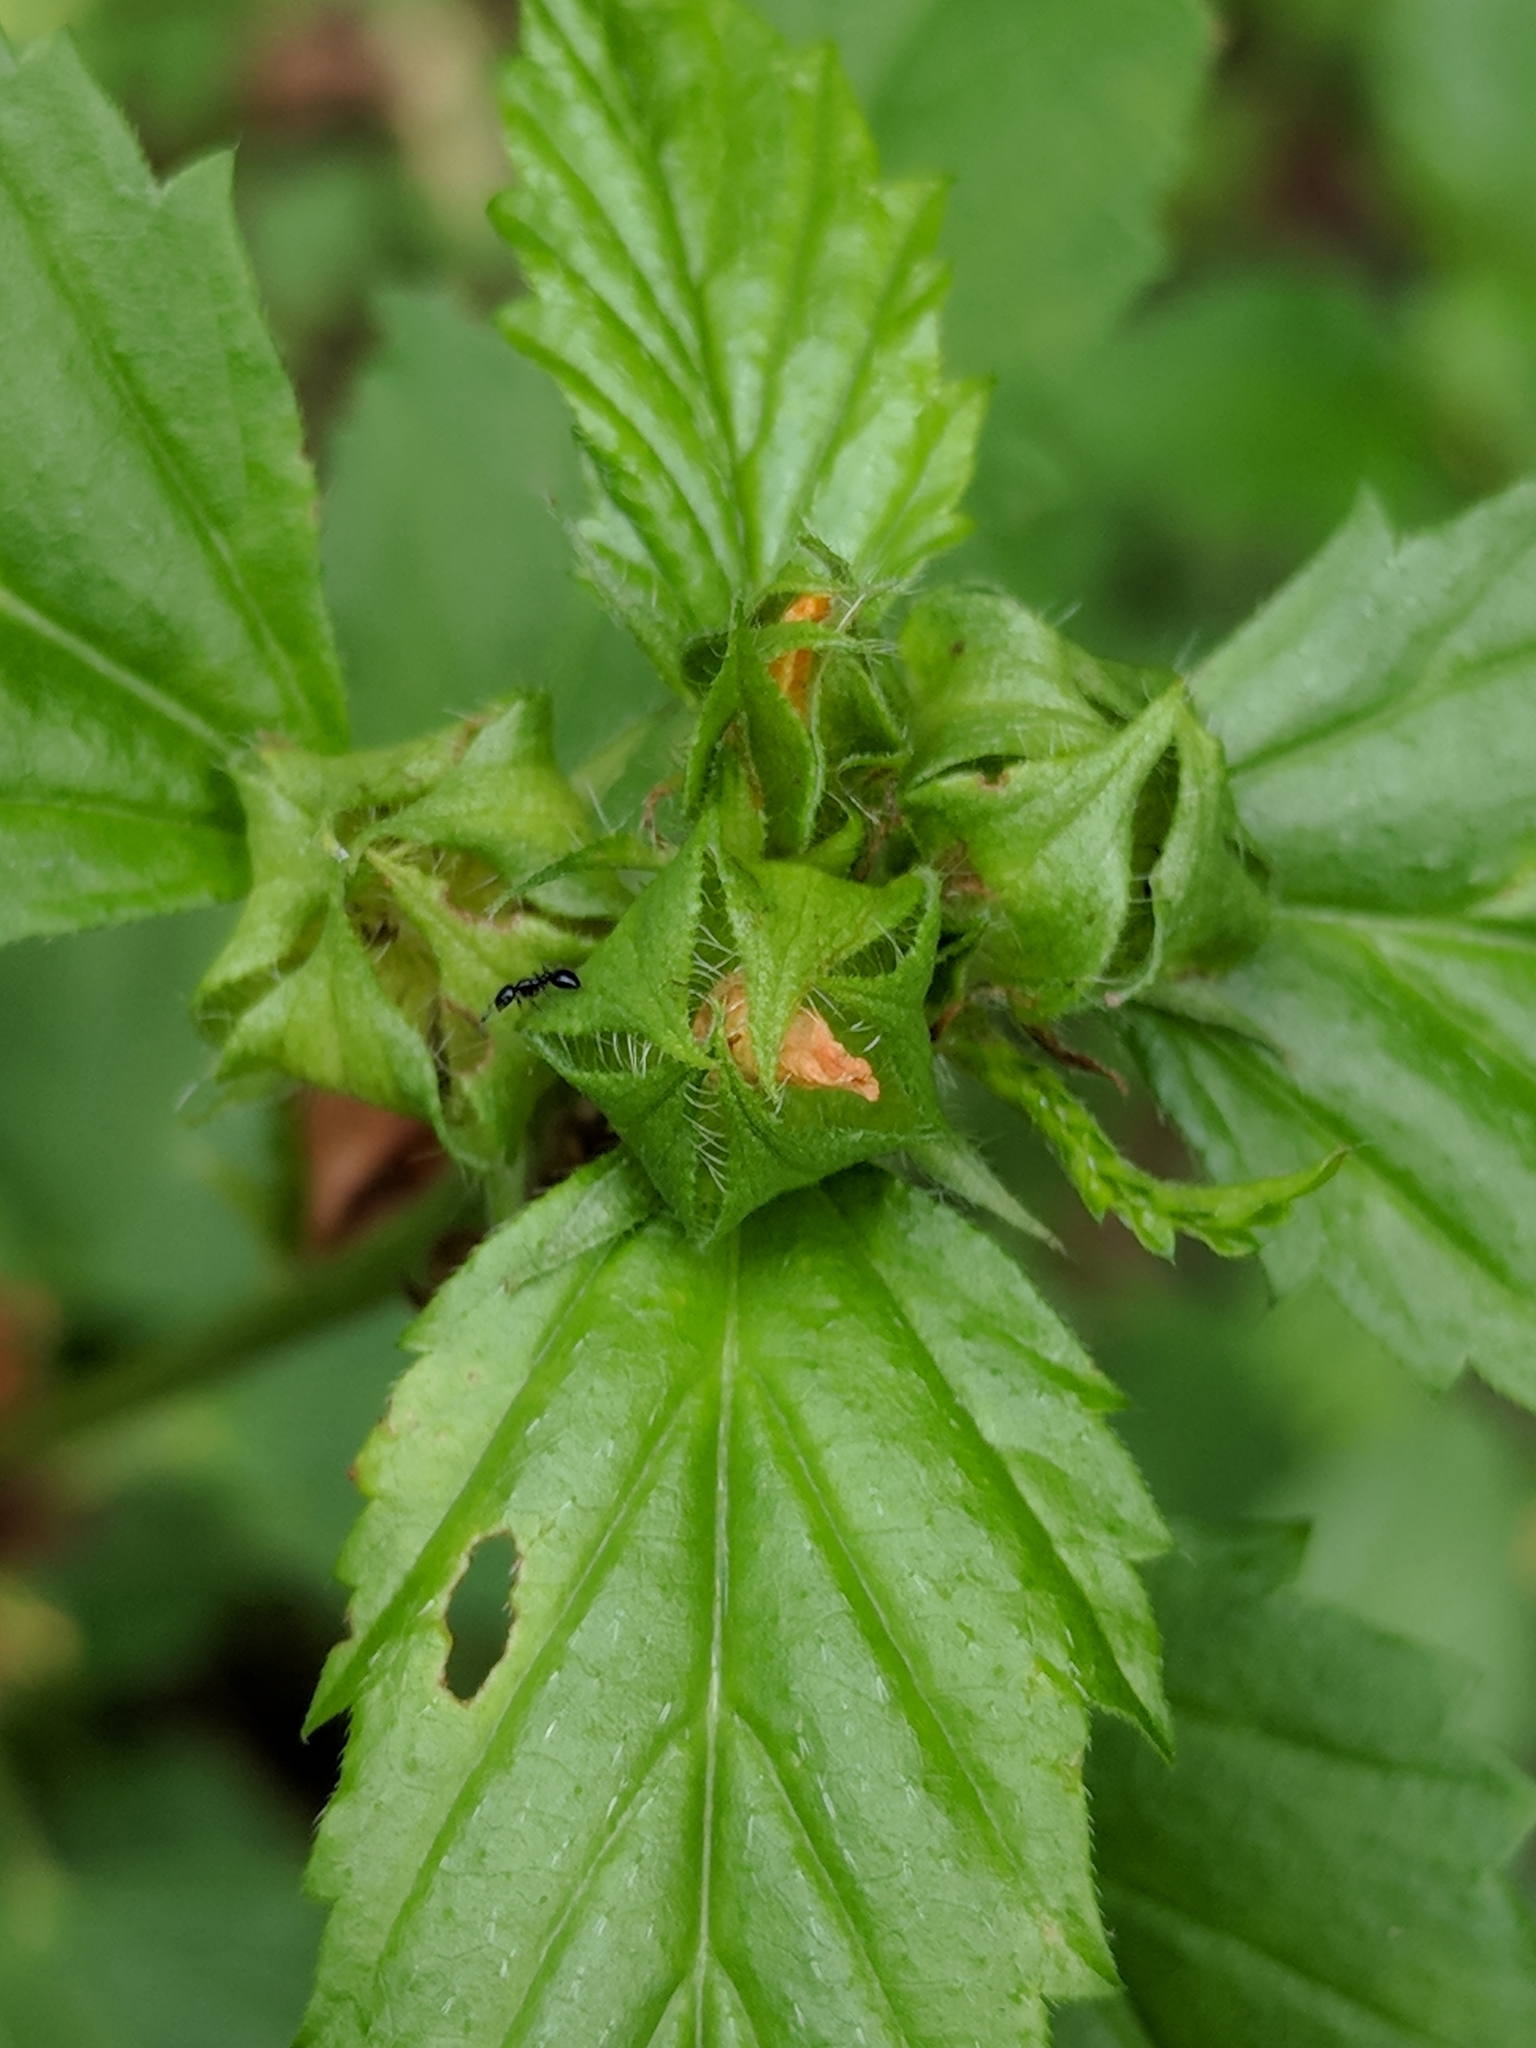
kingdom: Plantae
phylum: Tracheophyta
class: Magnoliopsida
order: Malvales
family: Malvaceae
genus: Malvastrum
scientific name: Malvastrum coromandelianum
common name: Threelobe false mallow
